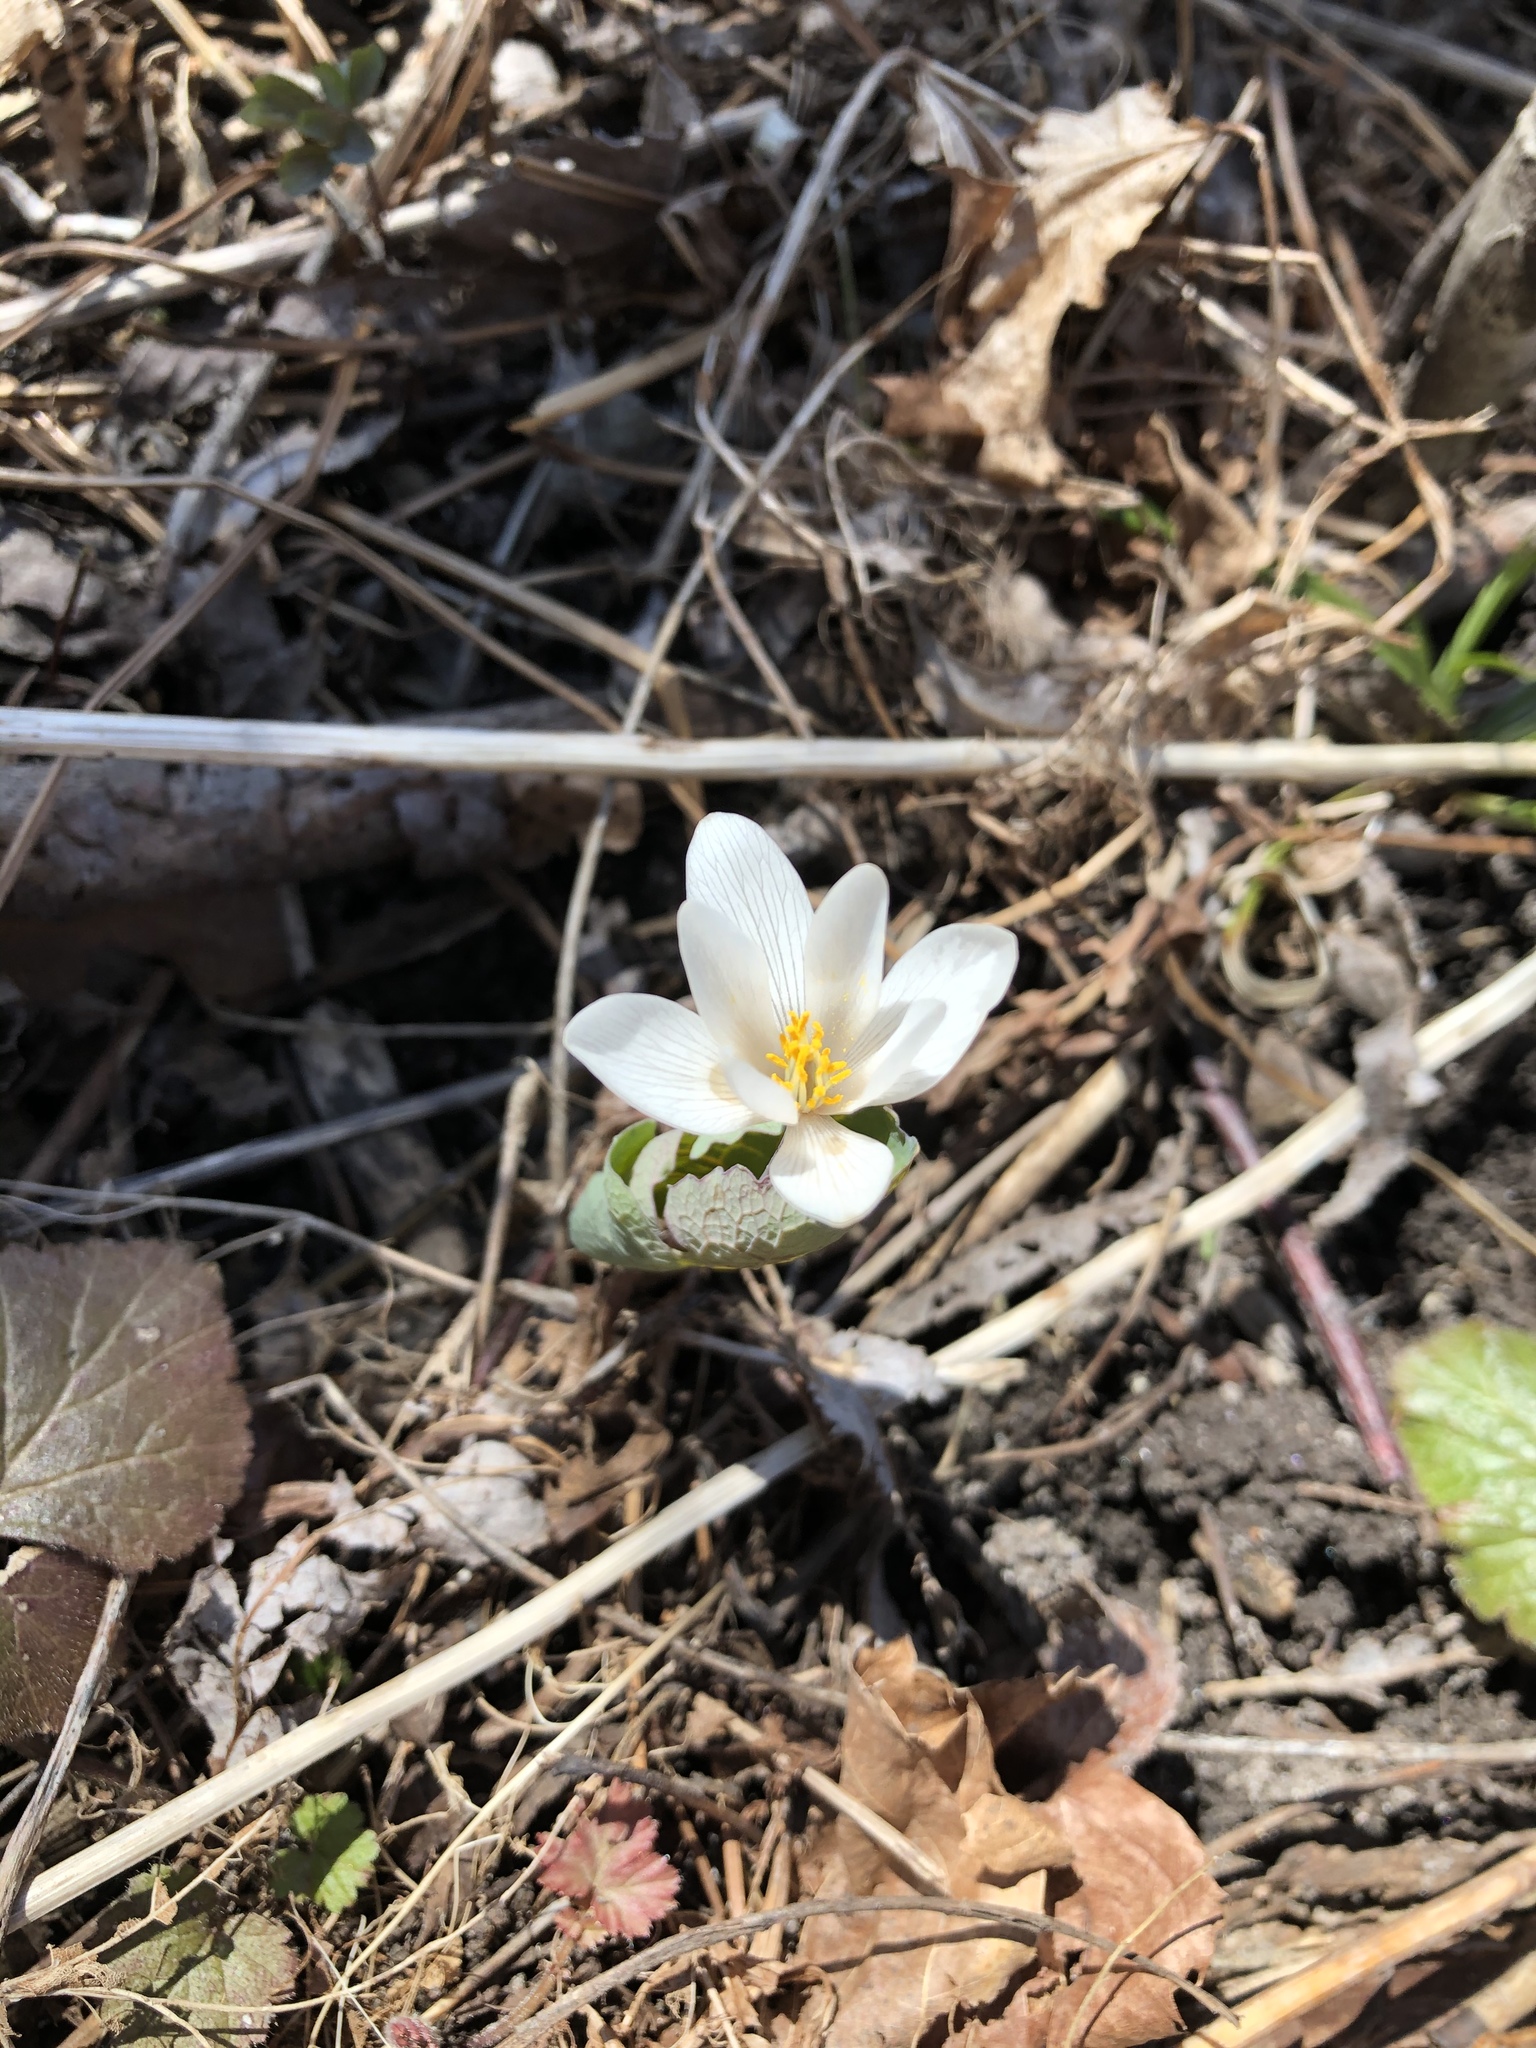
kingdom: Plantae
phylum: Tracheophyta
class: Magnoliopsida
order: Ranunculales
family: Papaveraceae
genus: Sanguinaria
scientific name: Sanguinaria canadensis
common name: Bloodroot
